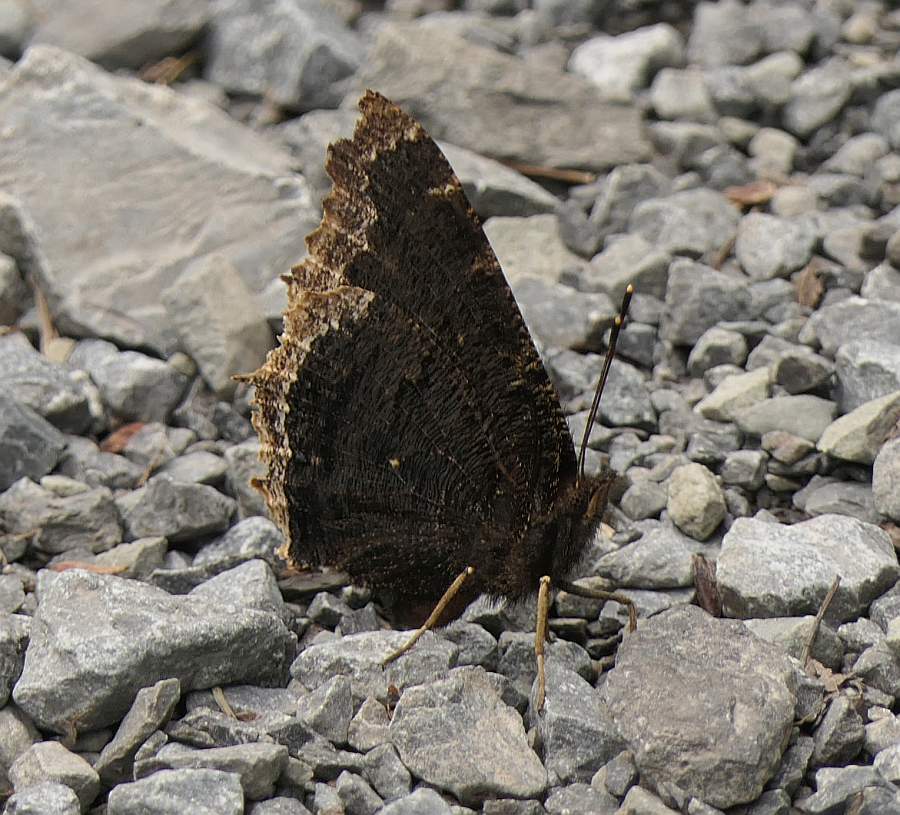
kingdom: Animalia
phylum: Arthropoda
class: Insecta
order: Lepidoptera
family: Nymphalidae
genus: Nymphalis
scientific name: Nymphalis antiopa
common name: Camberwell beauty
